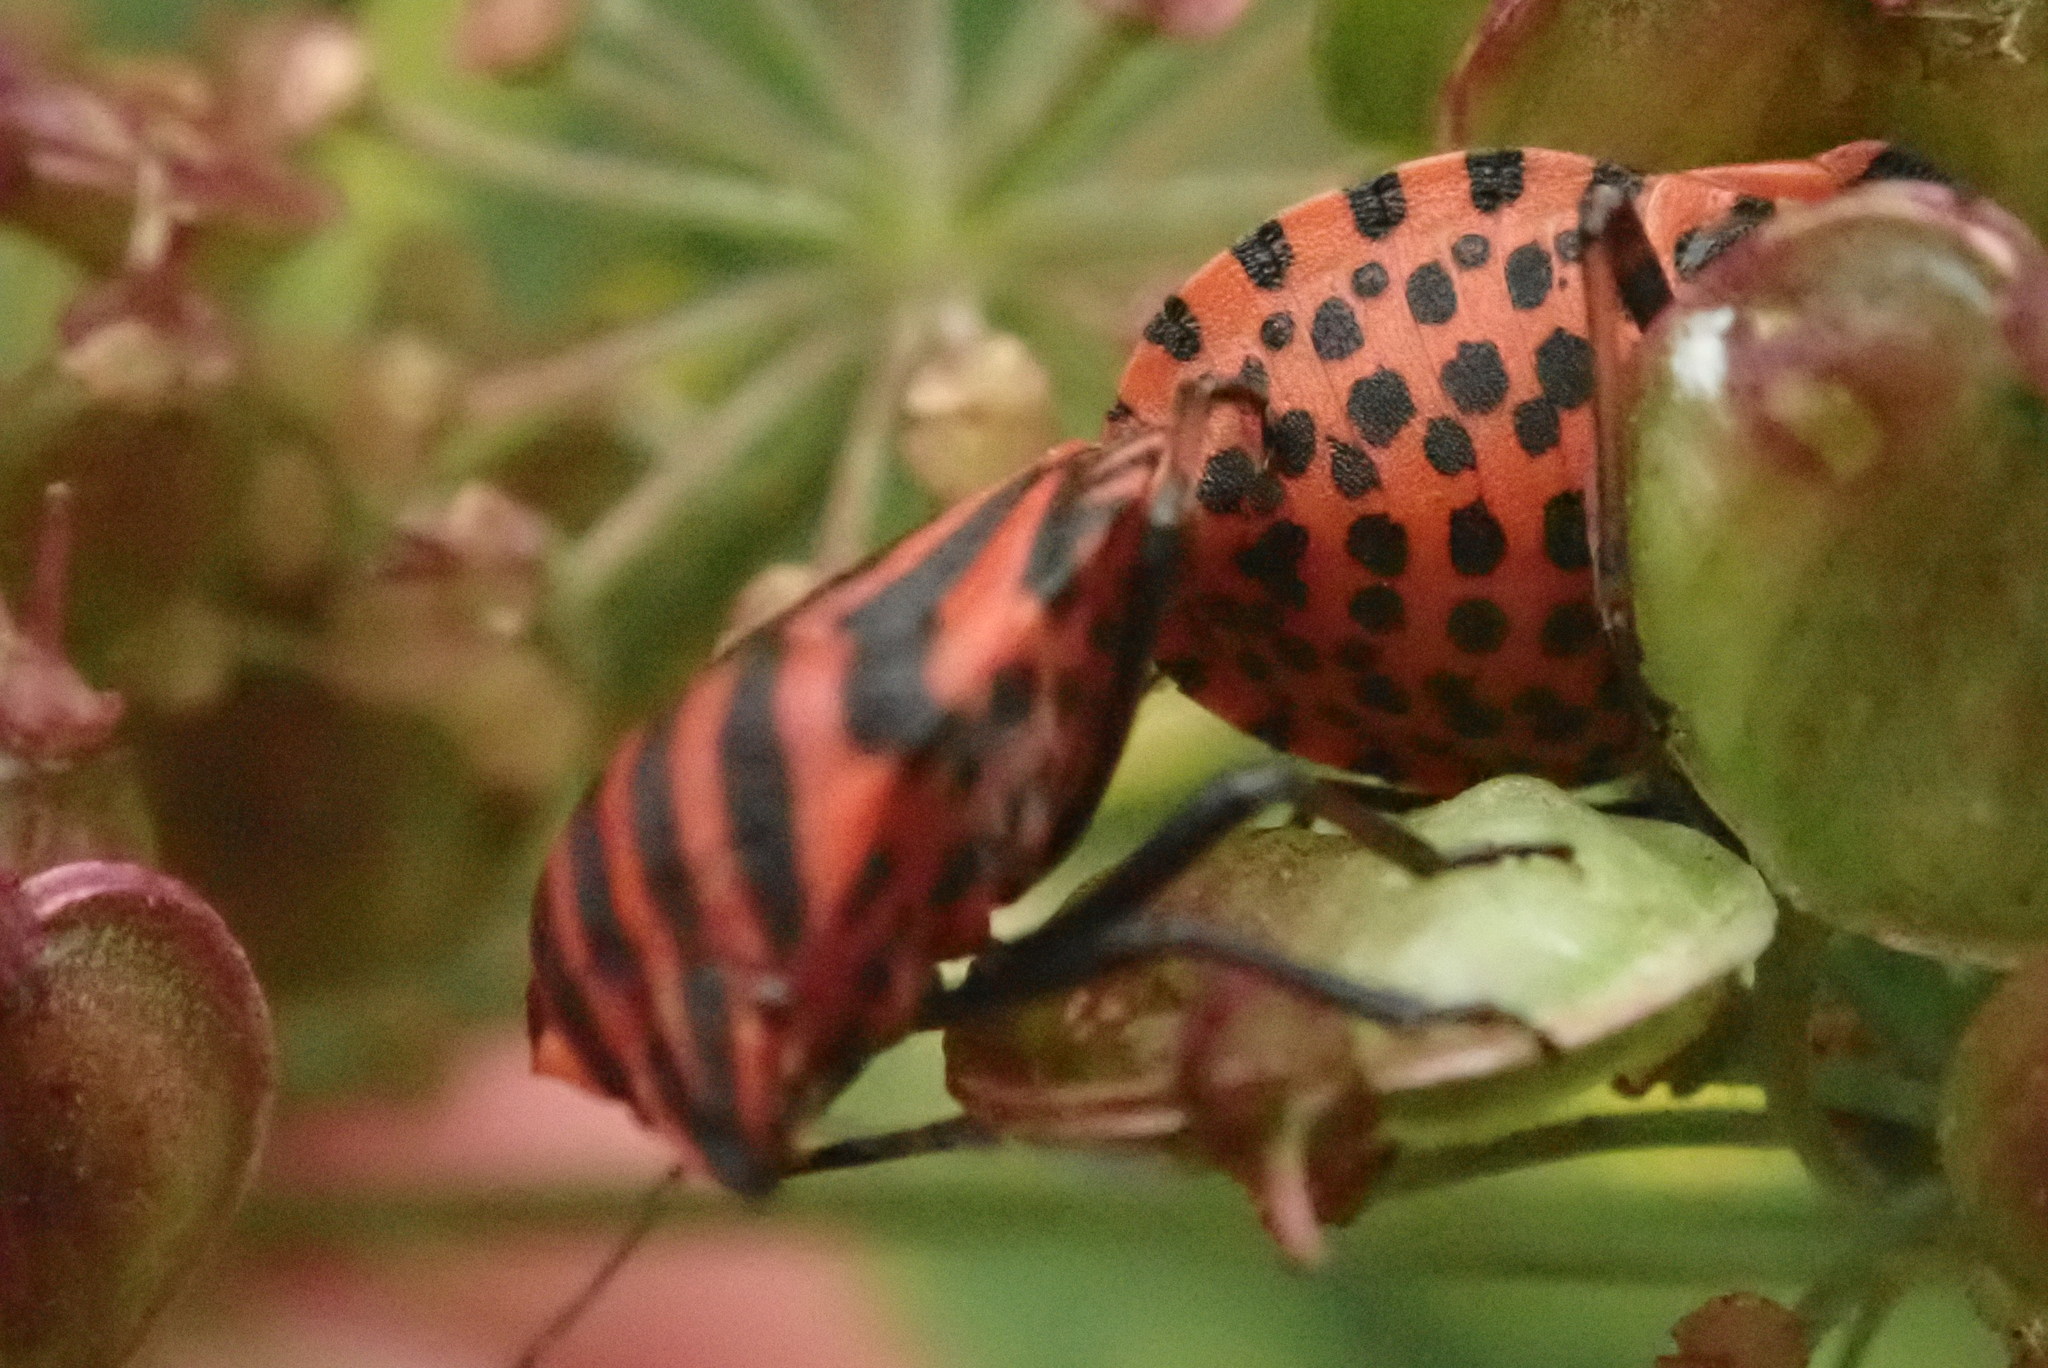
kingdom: Animalia
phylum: Arthropoda
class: Insecta
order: Hemiptera
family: Pentatomidae
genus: Graphosoma
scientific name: Graphosoma italicum
